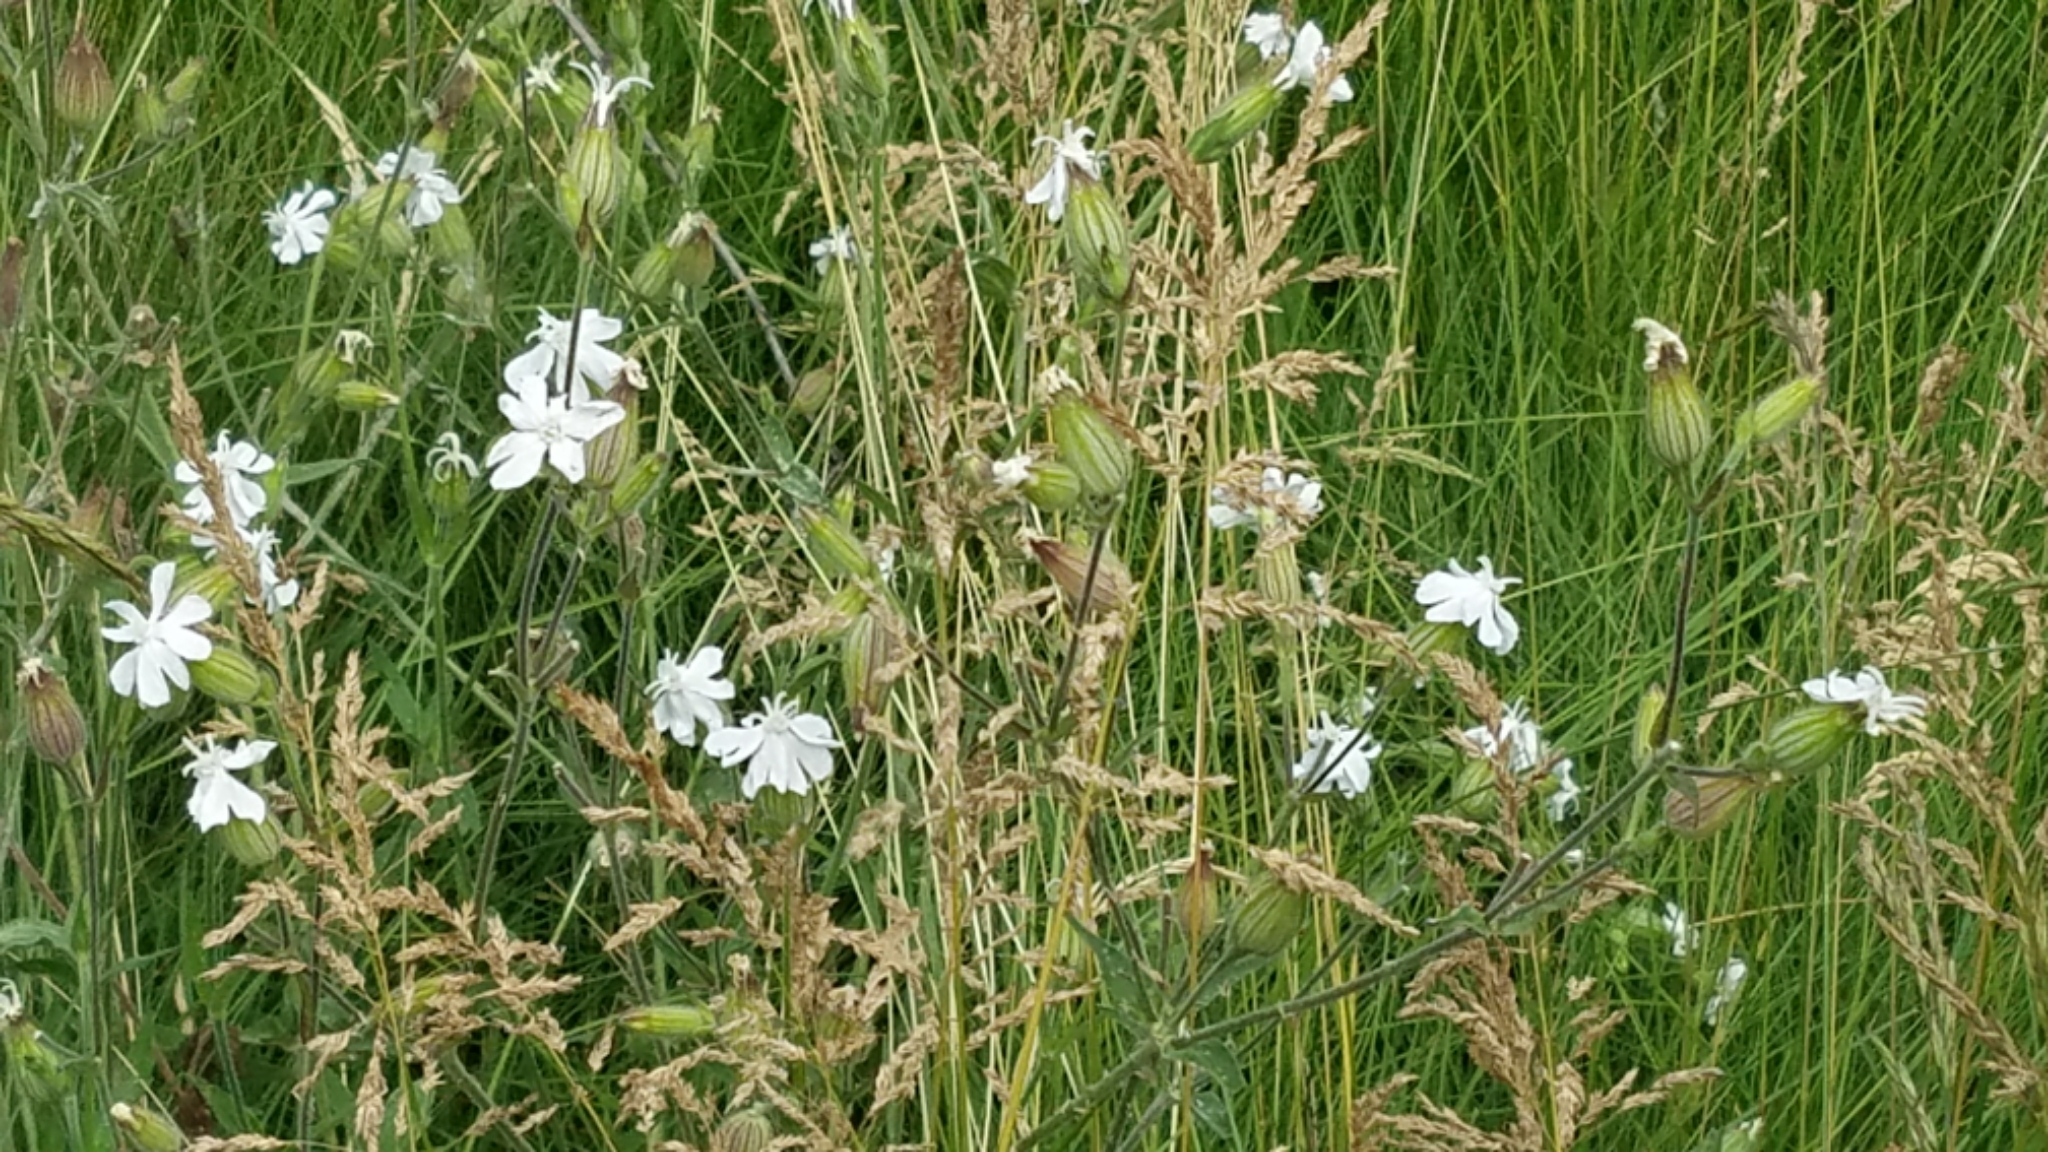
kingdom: Plantae
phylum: Tracheophyta
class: Magnoliopsida
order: Caryophyllales
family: Caryophyllaceae
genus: Silene
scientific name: Silene latifolia
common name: White campion
